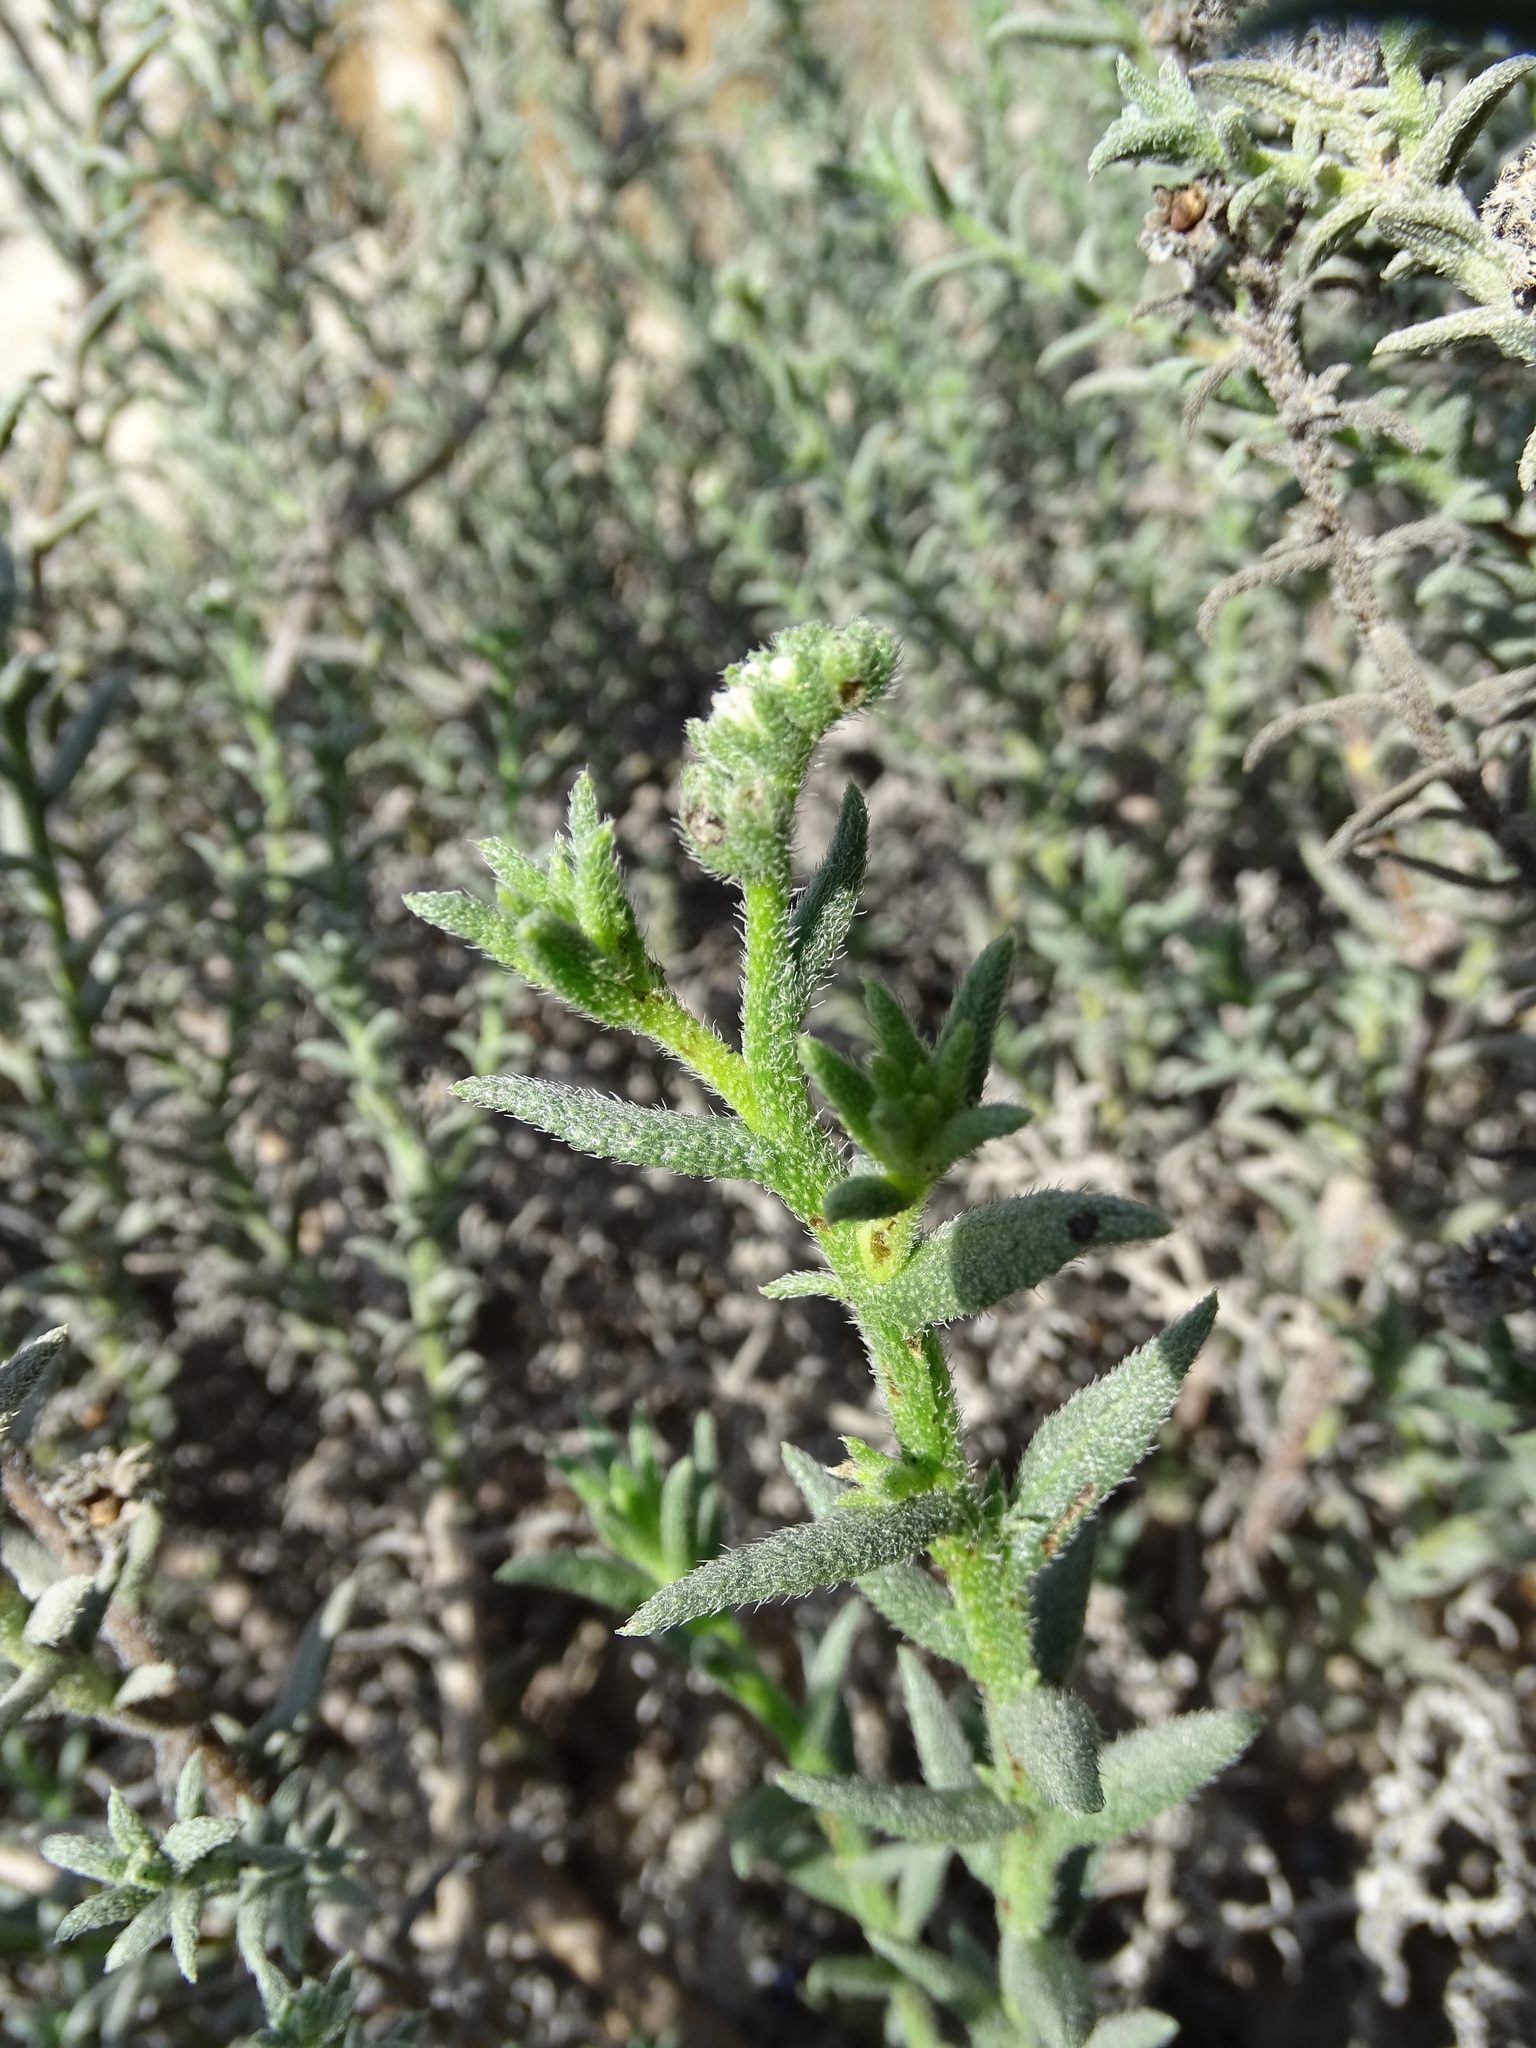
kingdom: Plantae
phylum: Tracheophyta
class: Magnoliopsida
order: Boraginales
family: Heliotropiaceae
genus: Heliotropium
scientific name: Heliotropium
